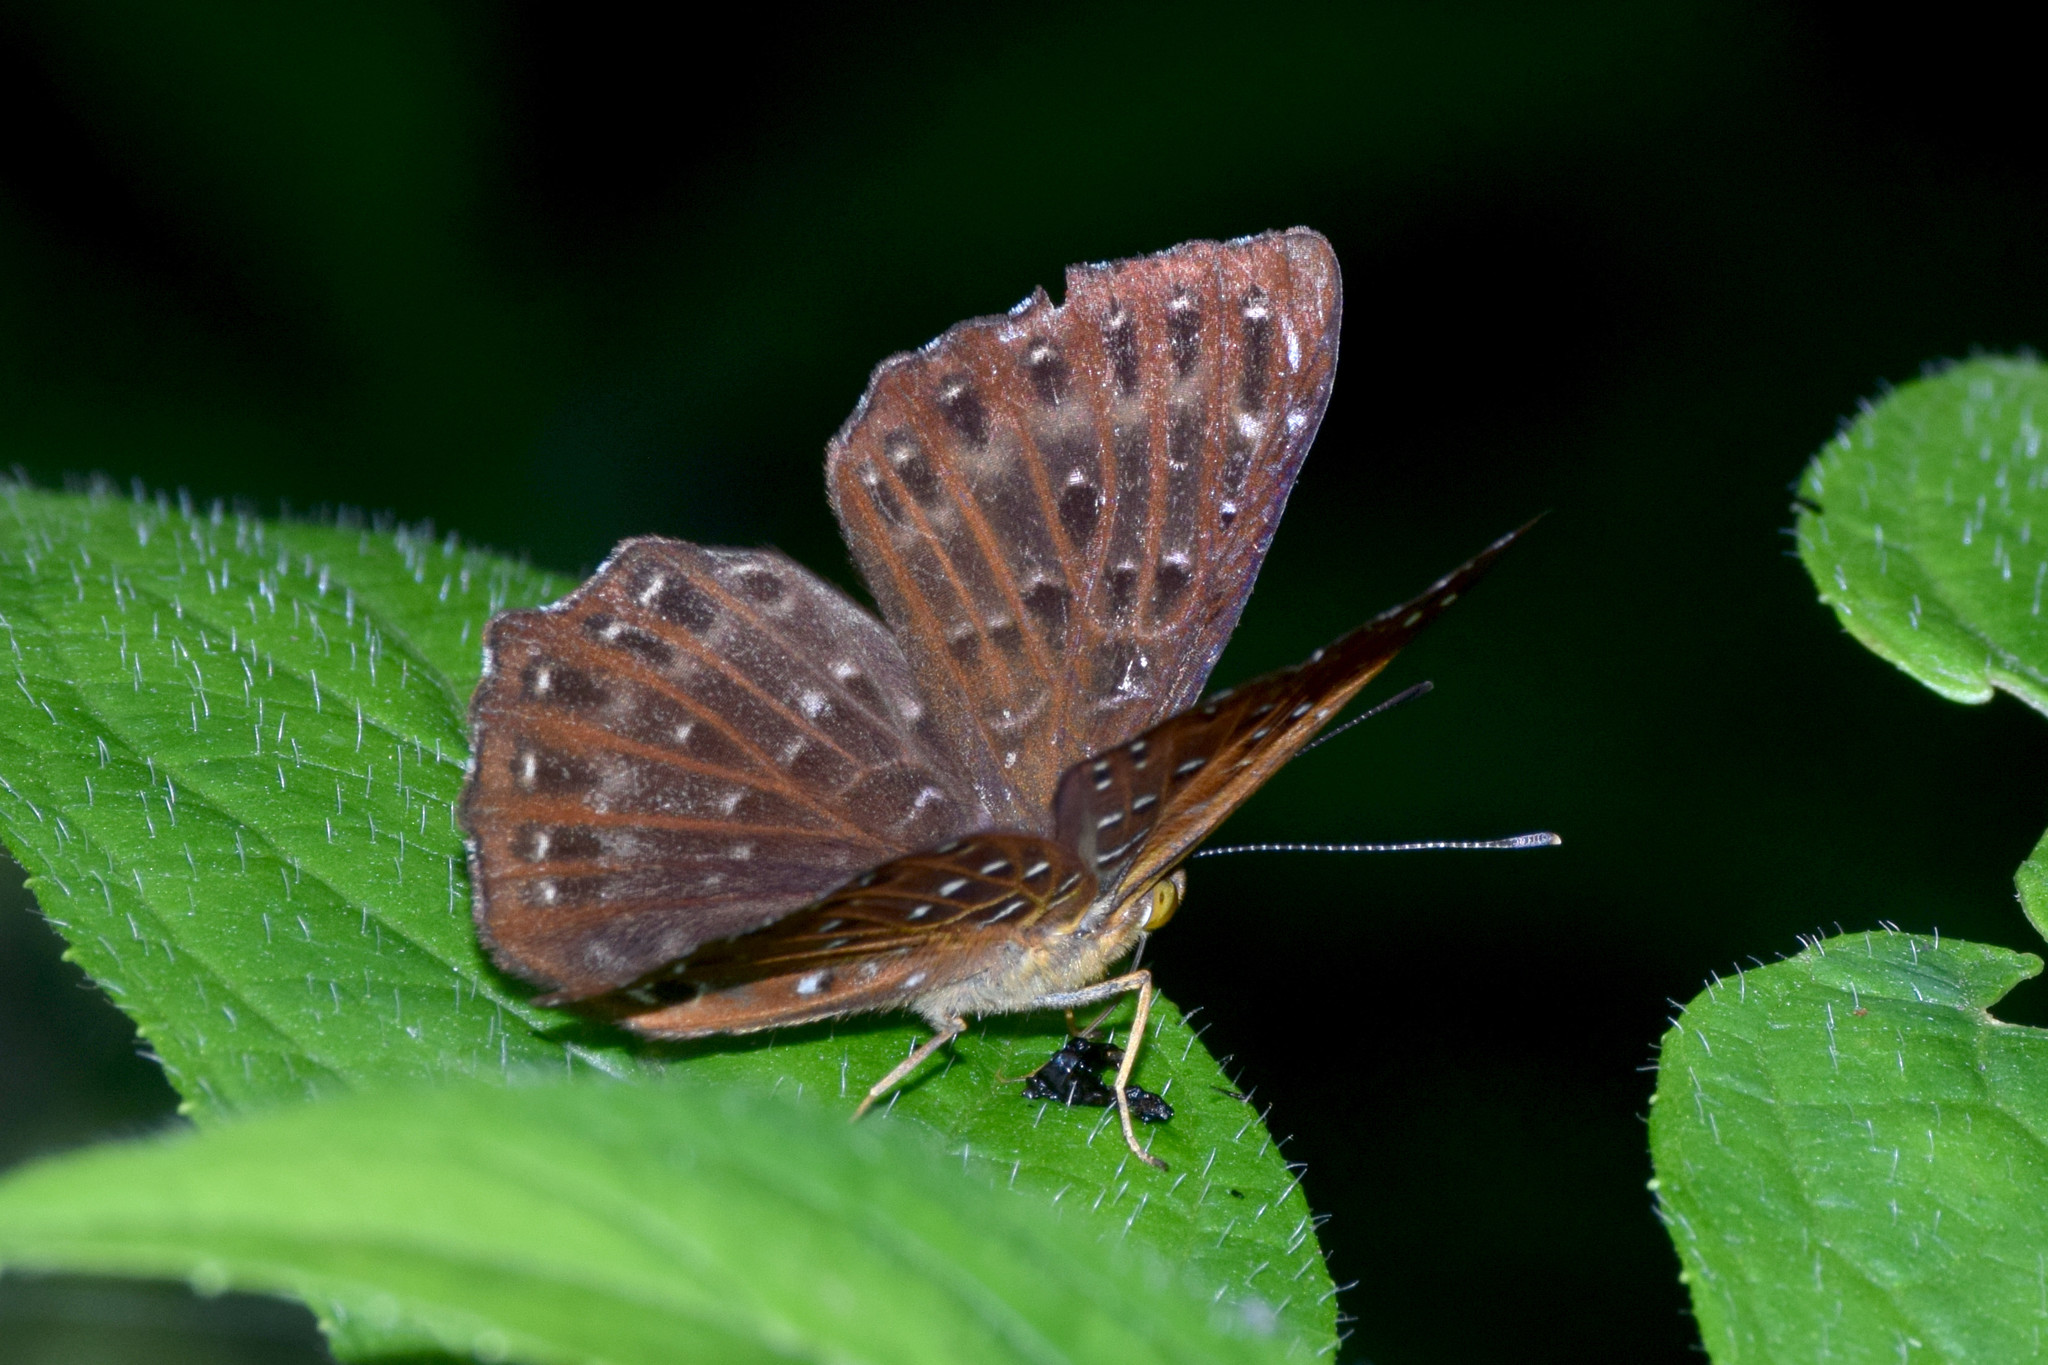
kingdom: Animalia
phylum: Arthropoda
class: Insecta
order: Lepidoptera
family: Riodinidae
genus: Zemeros
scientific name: Zemeros flegyas
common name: Punchinello
